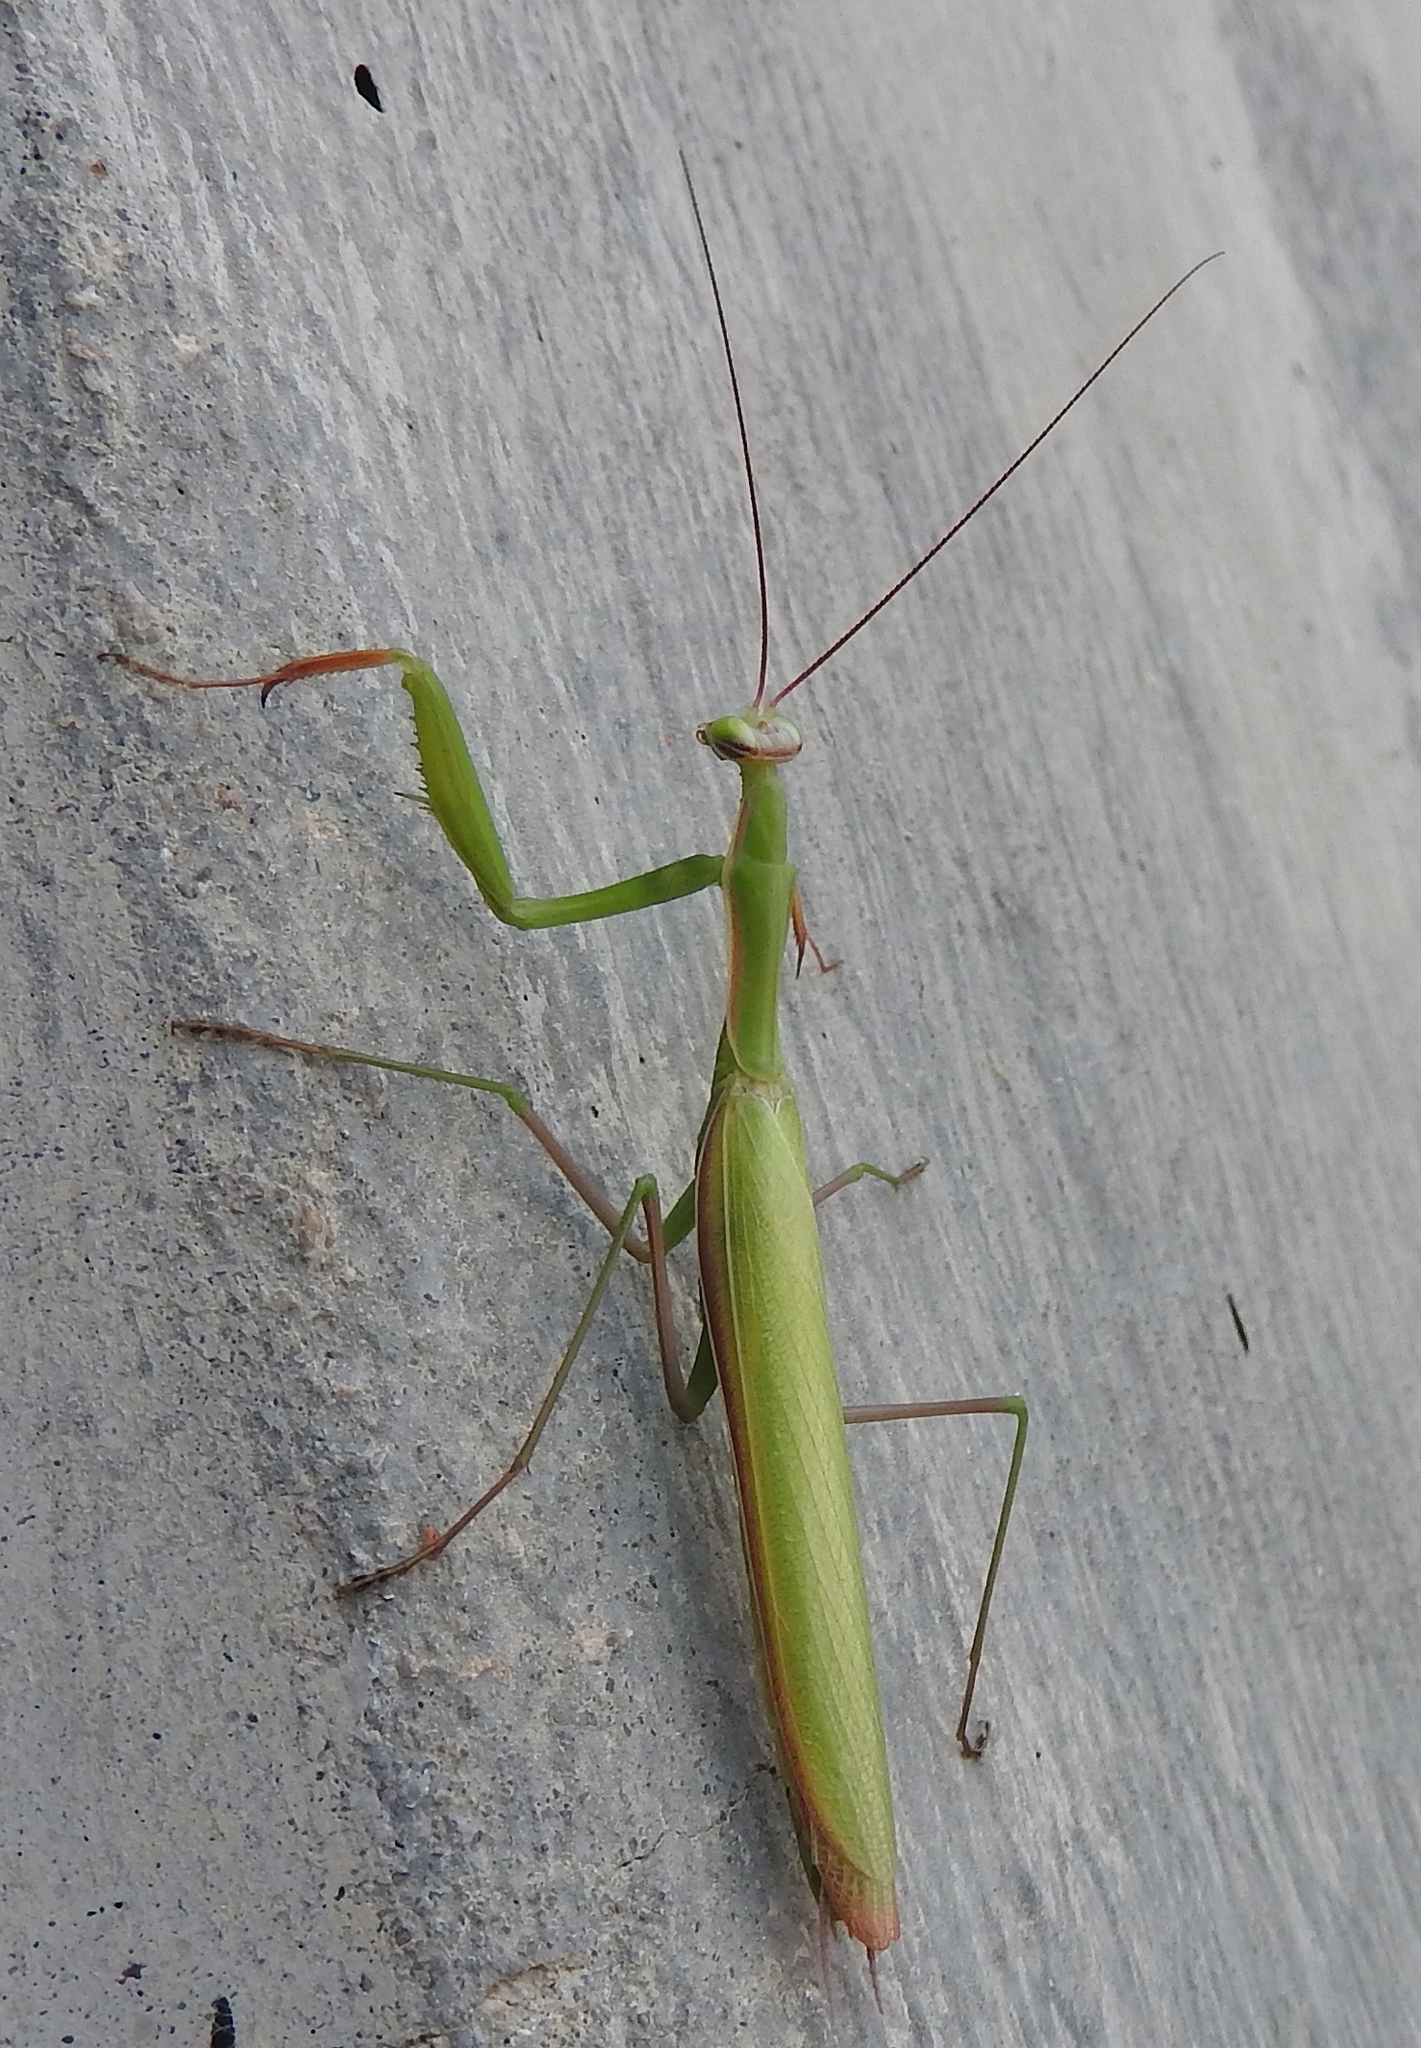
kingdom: Animalia
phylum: Arthropoda
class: Insecta
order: Mantodea
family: Mantidae
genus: Mantis
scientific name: Mantis religiosa
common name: Praying mantis
